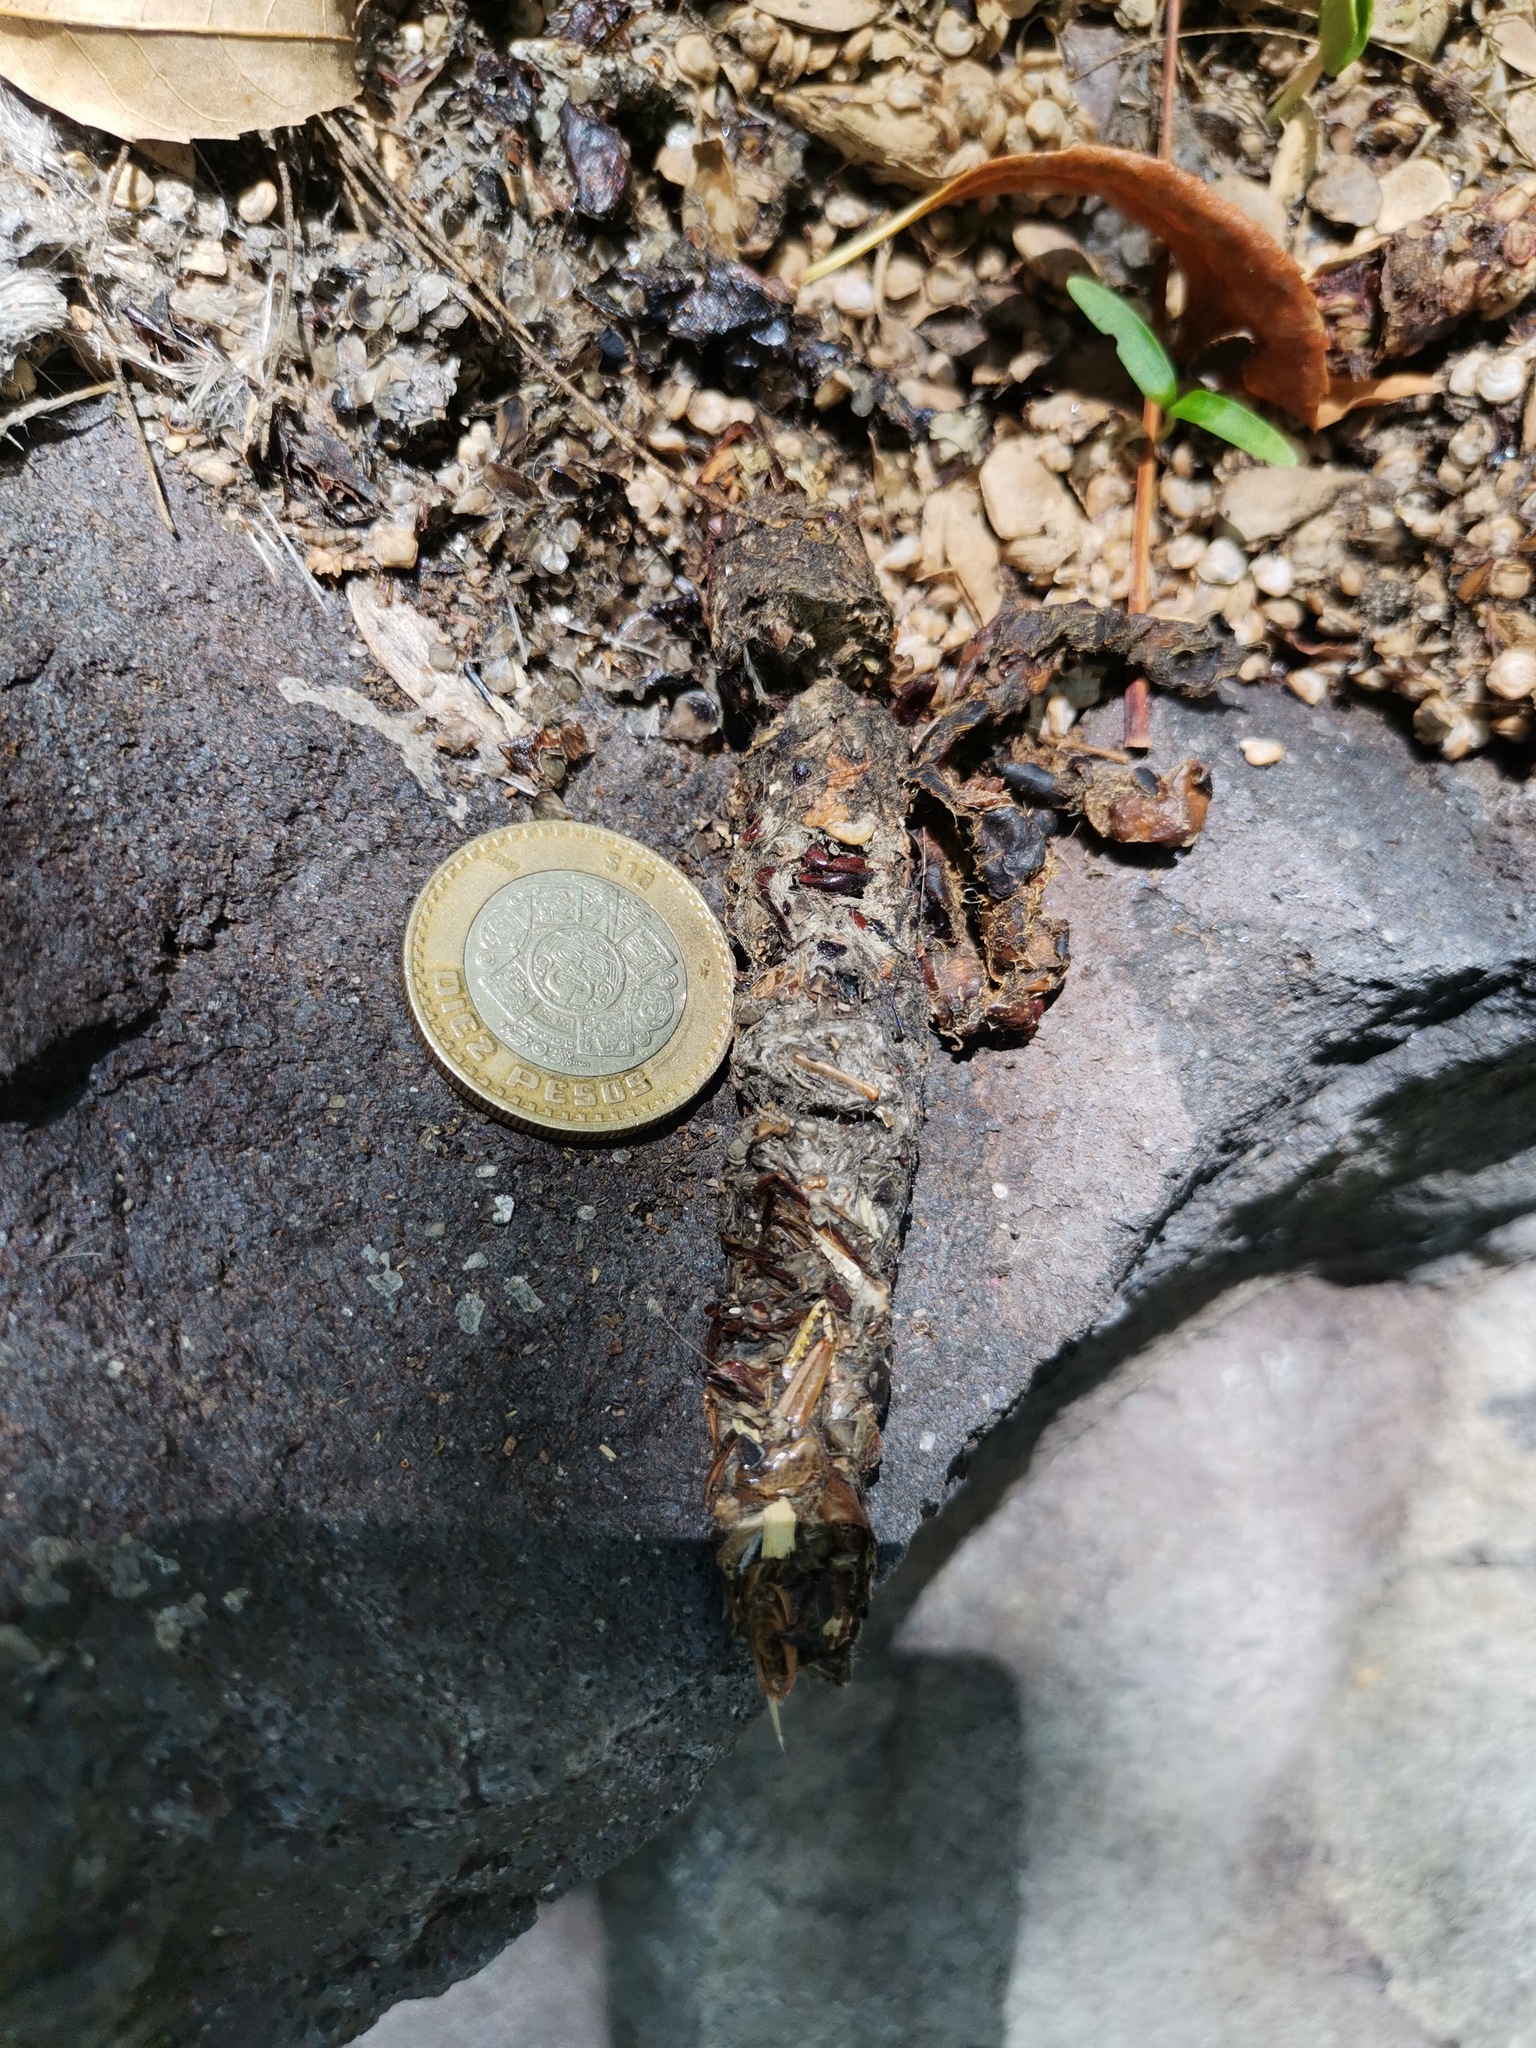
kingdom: Animalia
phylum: Chordata
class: Mammalia
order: Carnivora
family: Procyonidae
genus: Bassariscus
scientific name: Bassariscus astutus
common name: Ringtail
